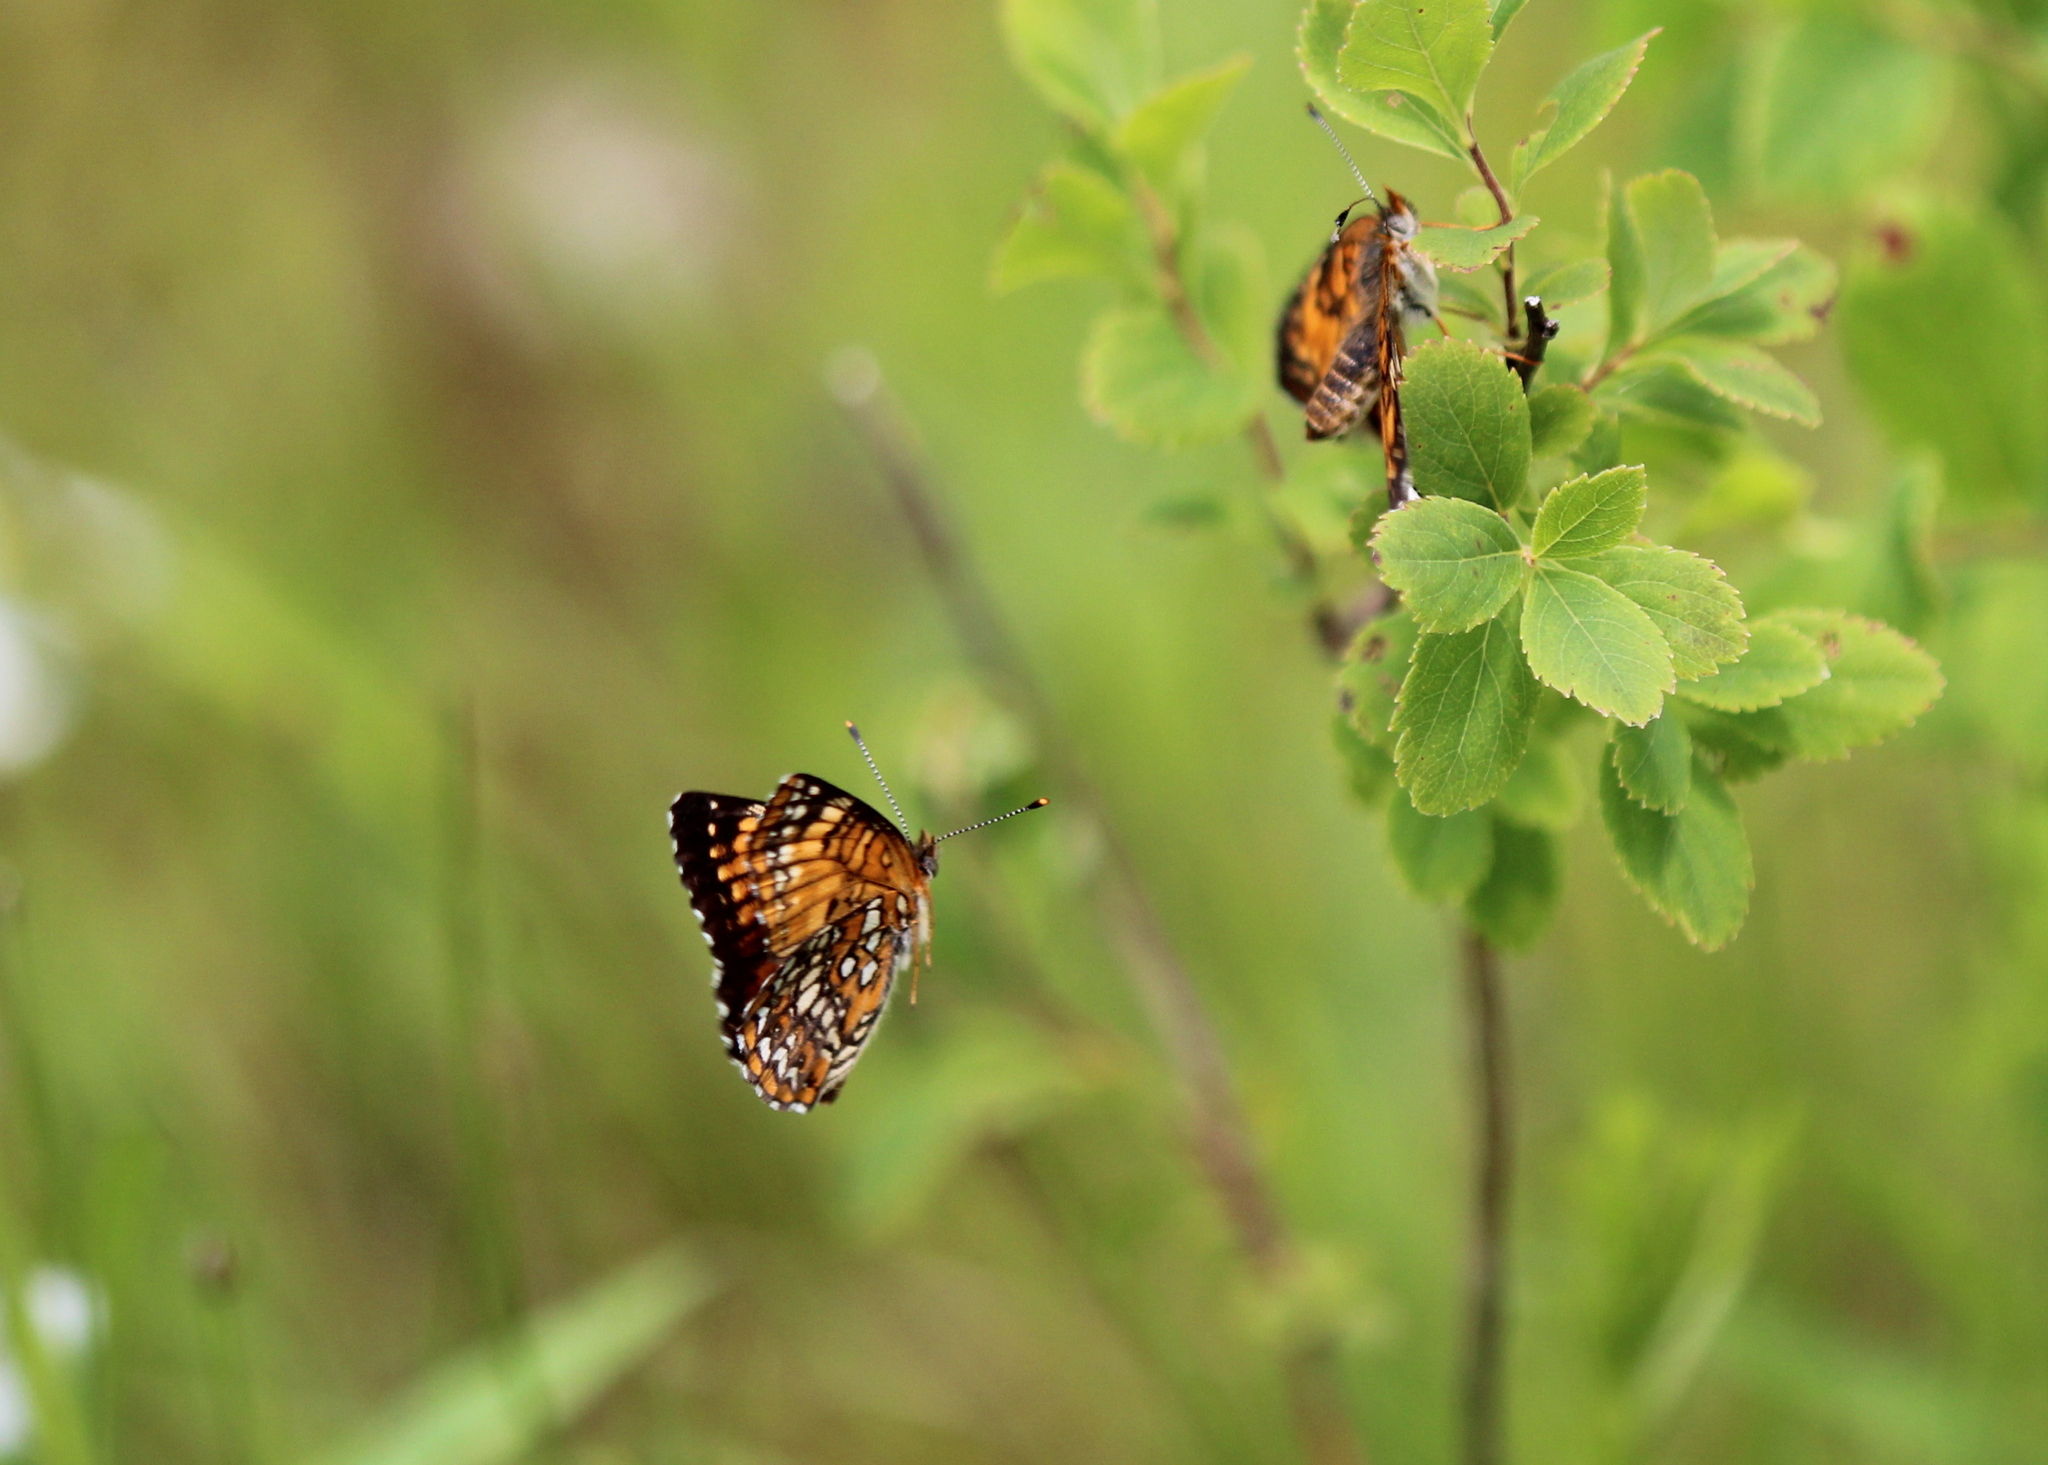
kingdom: Animalia
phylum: Arthropoda
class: Insecta
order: Lepidoptera
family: Nymphalidae
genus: Chlosyne
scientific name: Chlosyne harrisii
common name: Harris's checkerspot
